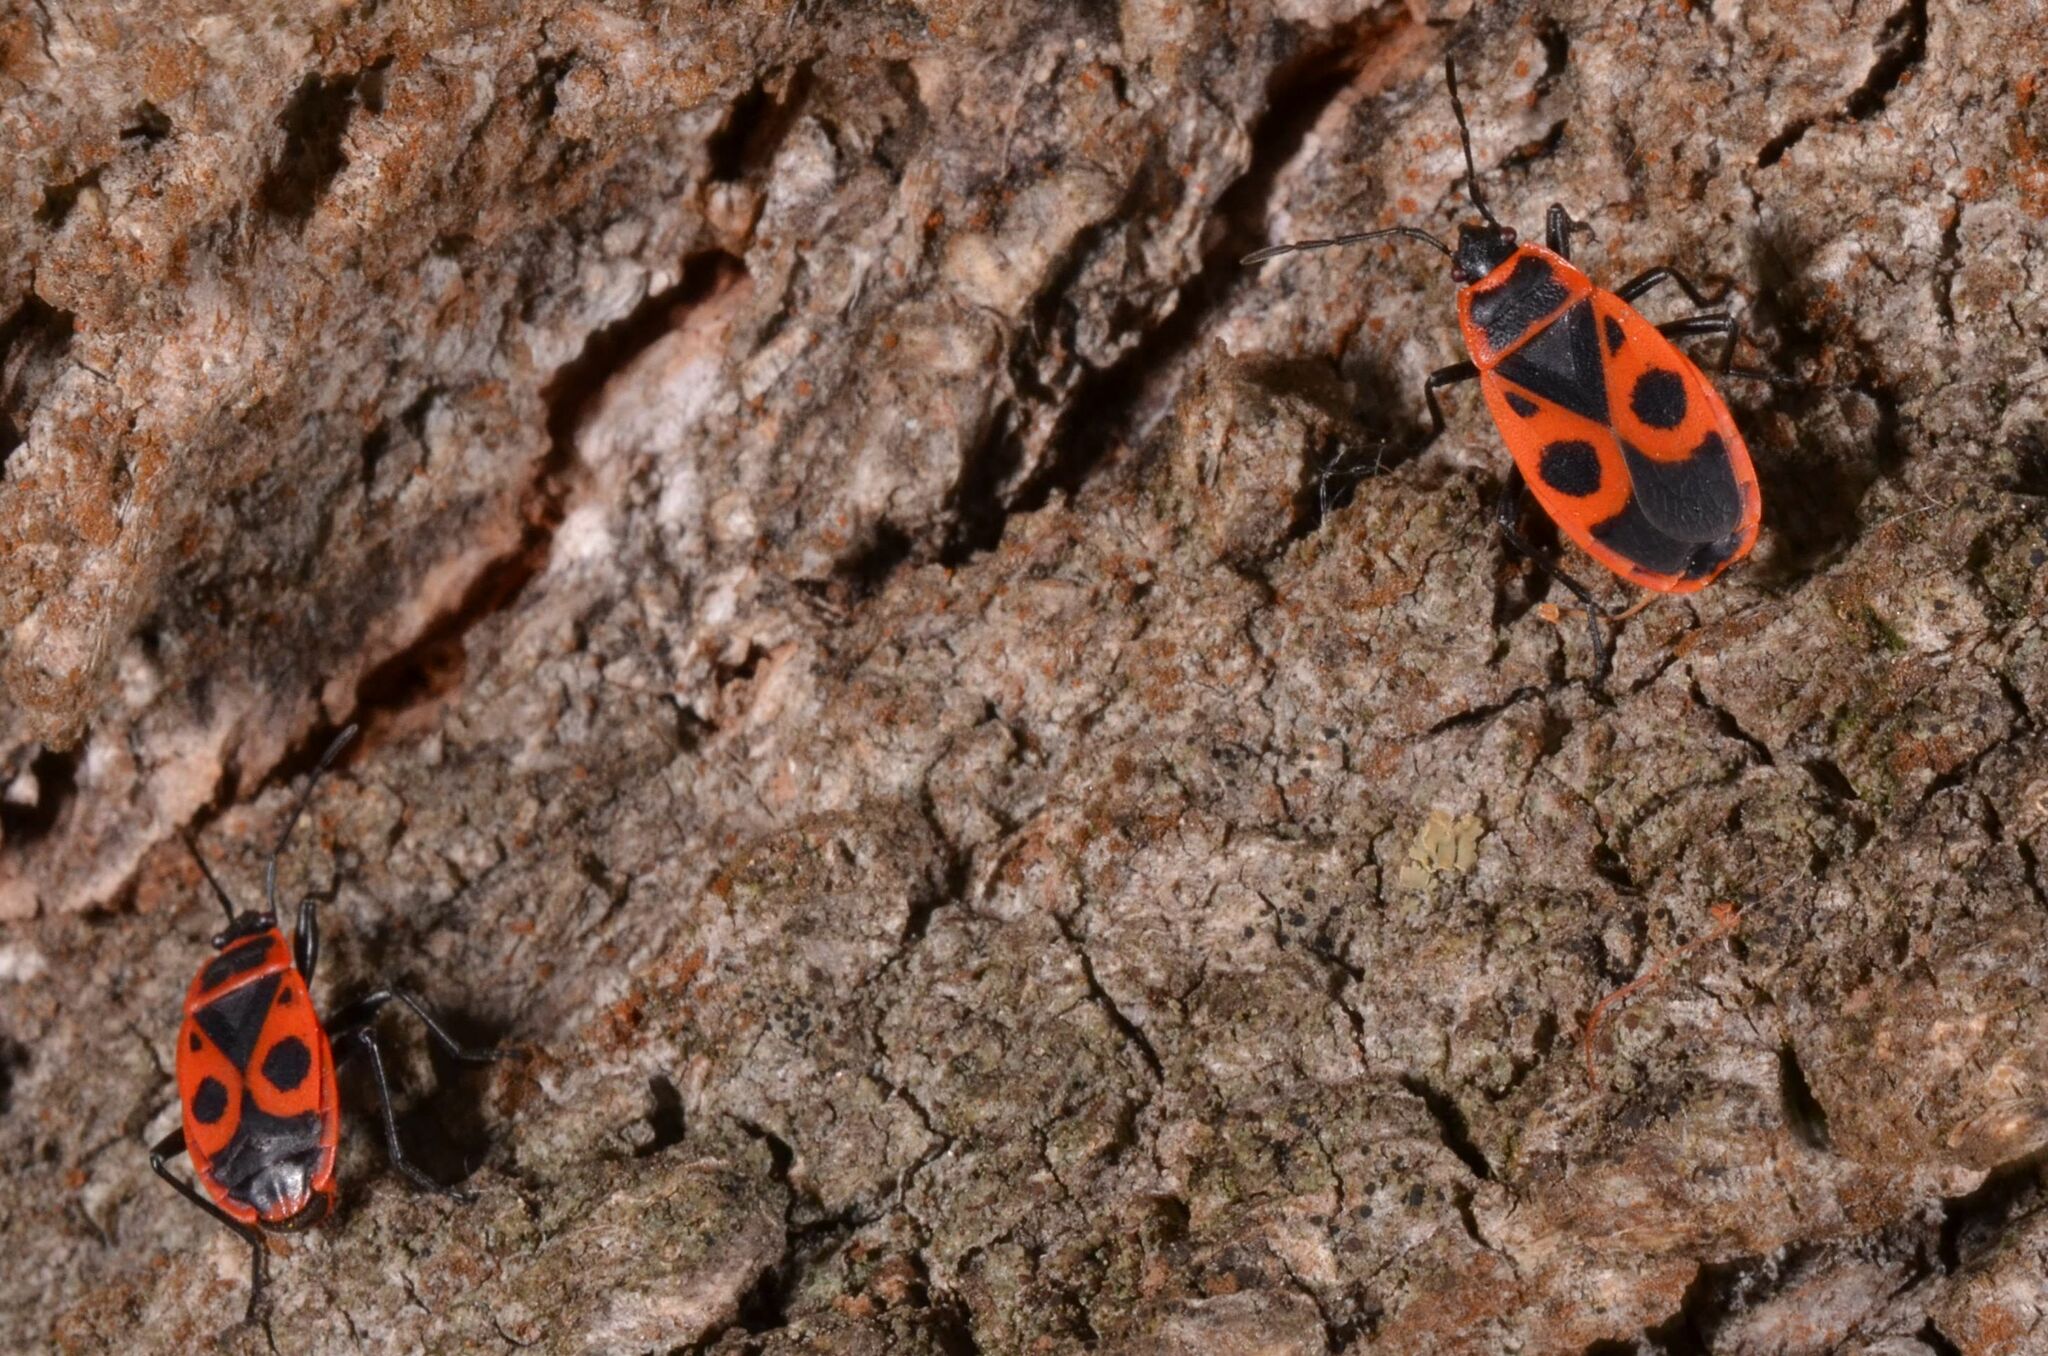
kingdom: Animalia
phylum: Arthropoda
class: Insecta
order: Hemiptera
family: Pyrrhocoridae
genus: Pyrrhocoris
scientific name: Pyrrhocoris apterus
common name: Firebug
